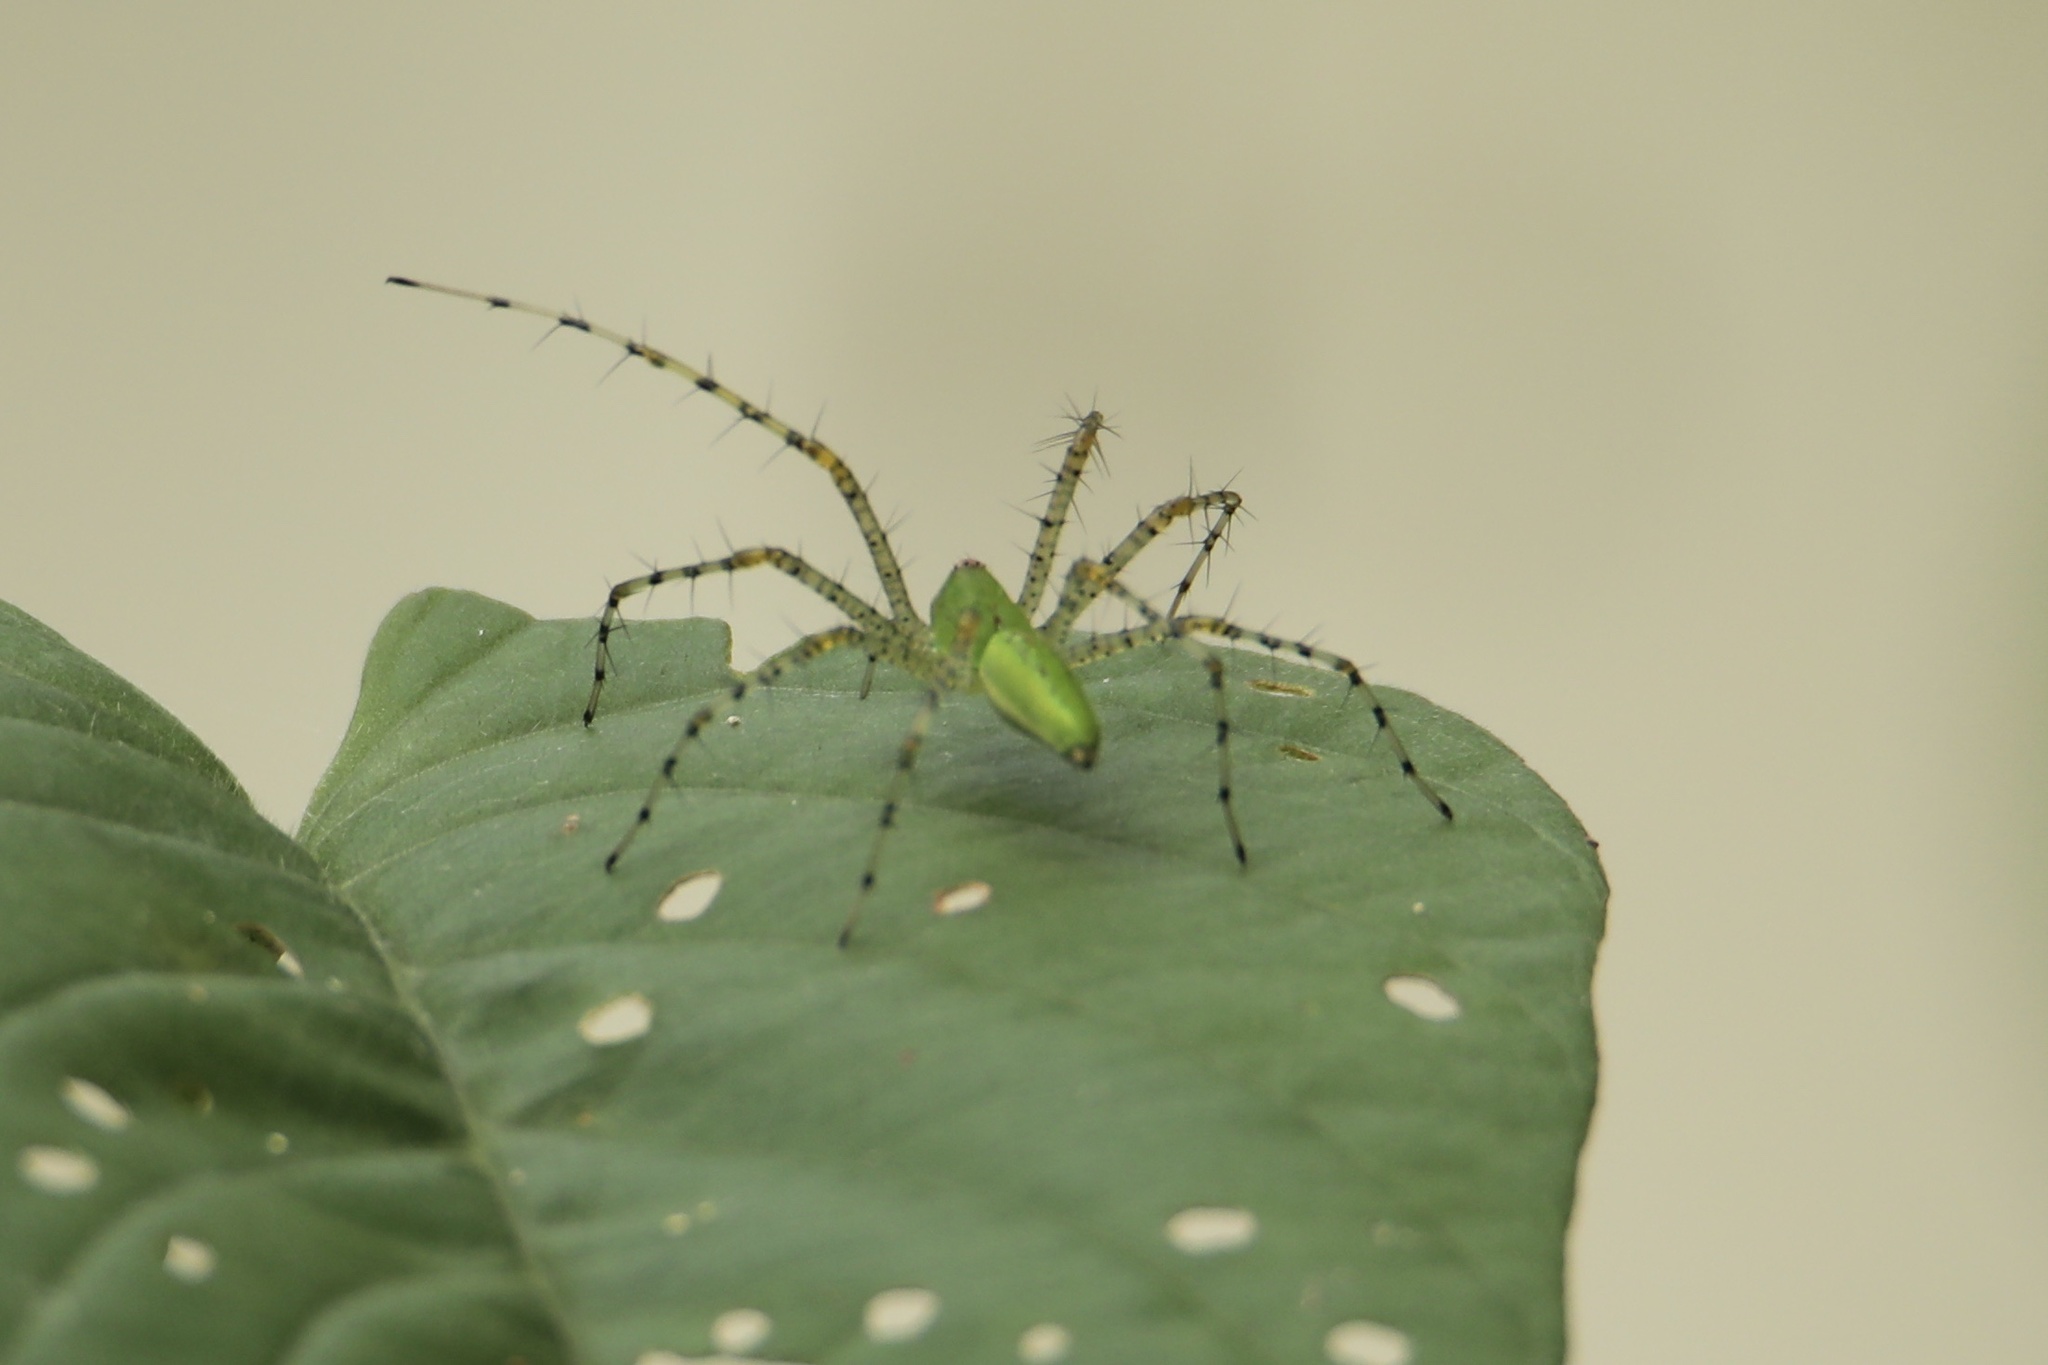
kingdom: Animalia
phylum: Arthropoda
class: Arachnida
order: Araneae
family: Oxyopidae
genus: Peucetia
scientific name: Peucetia viridans
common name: Lynx spiders
